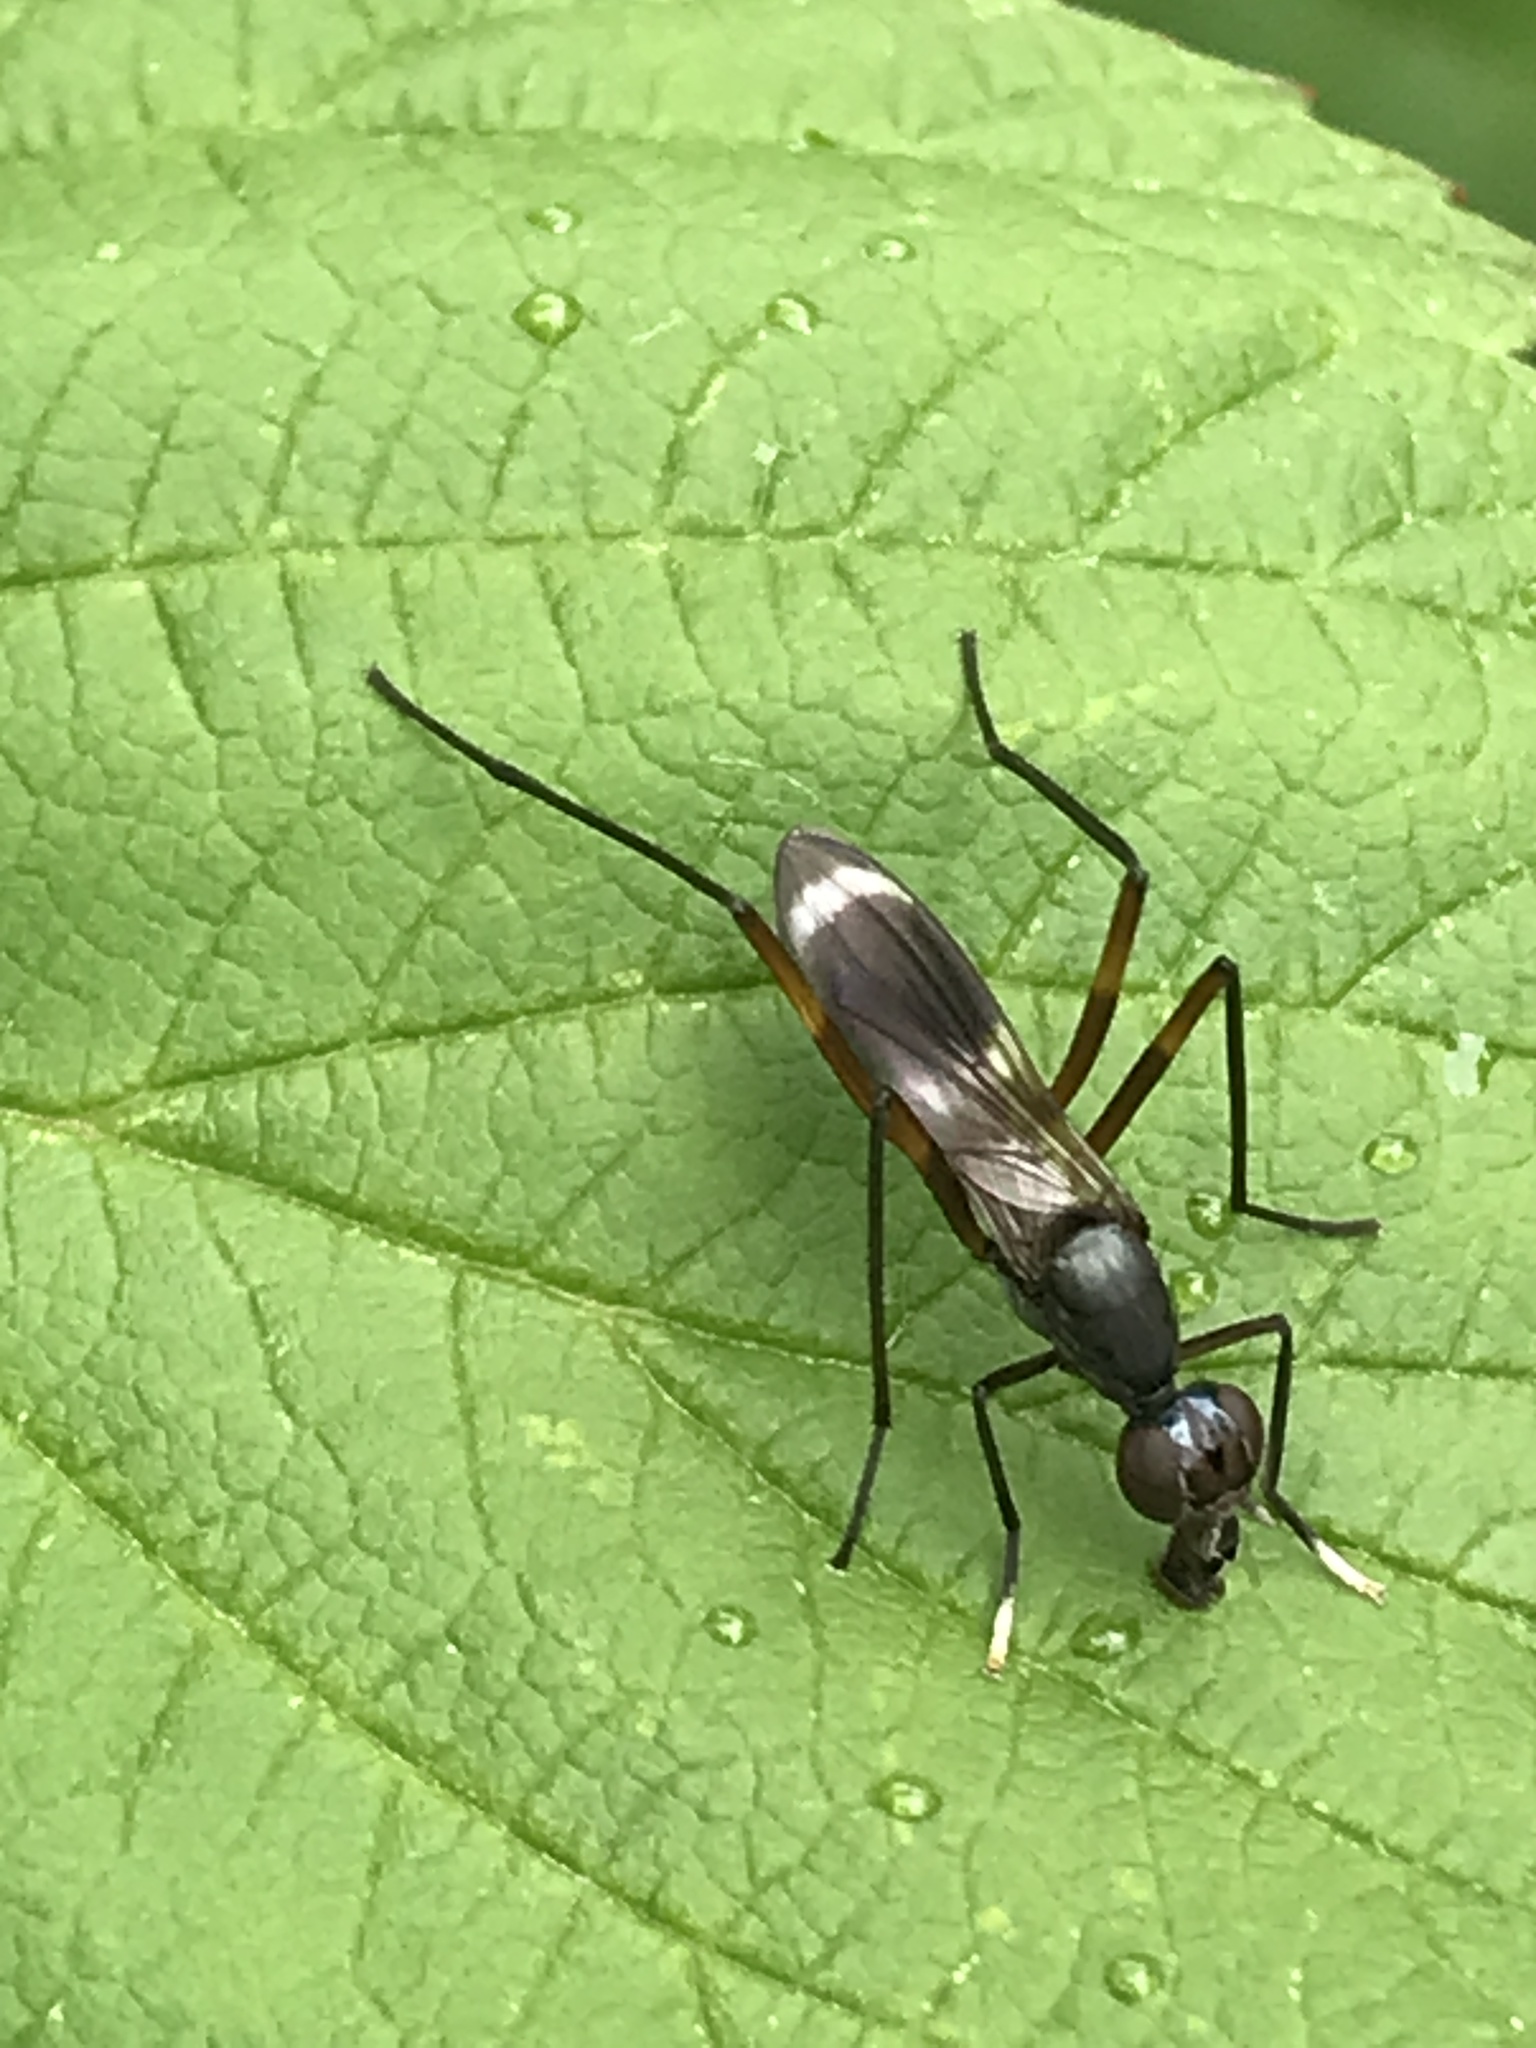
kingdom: Animalia
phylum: Arthropoda
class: Insecta
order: Diptera
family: Micropezidae
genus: Taeniaptera
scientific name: Taeniaptera trivittata
